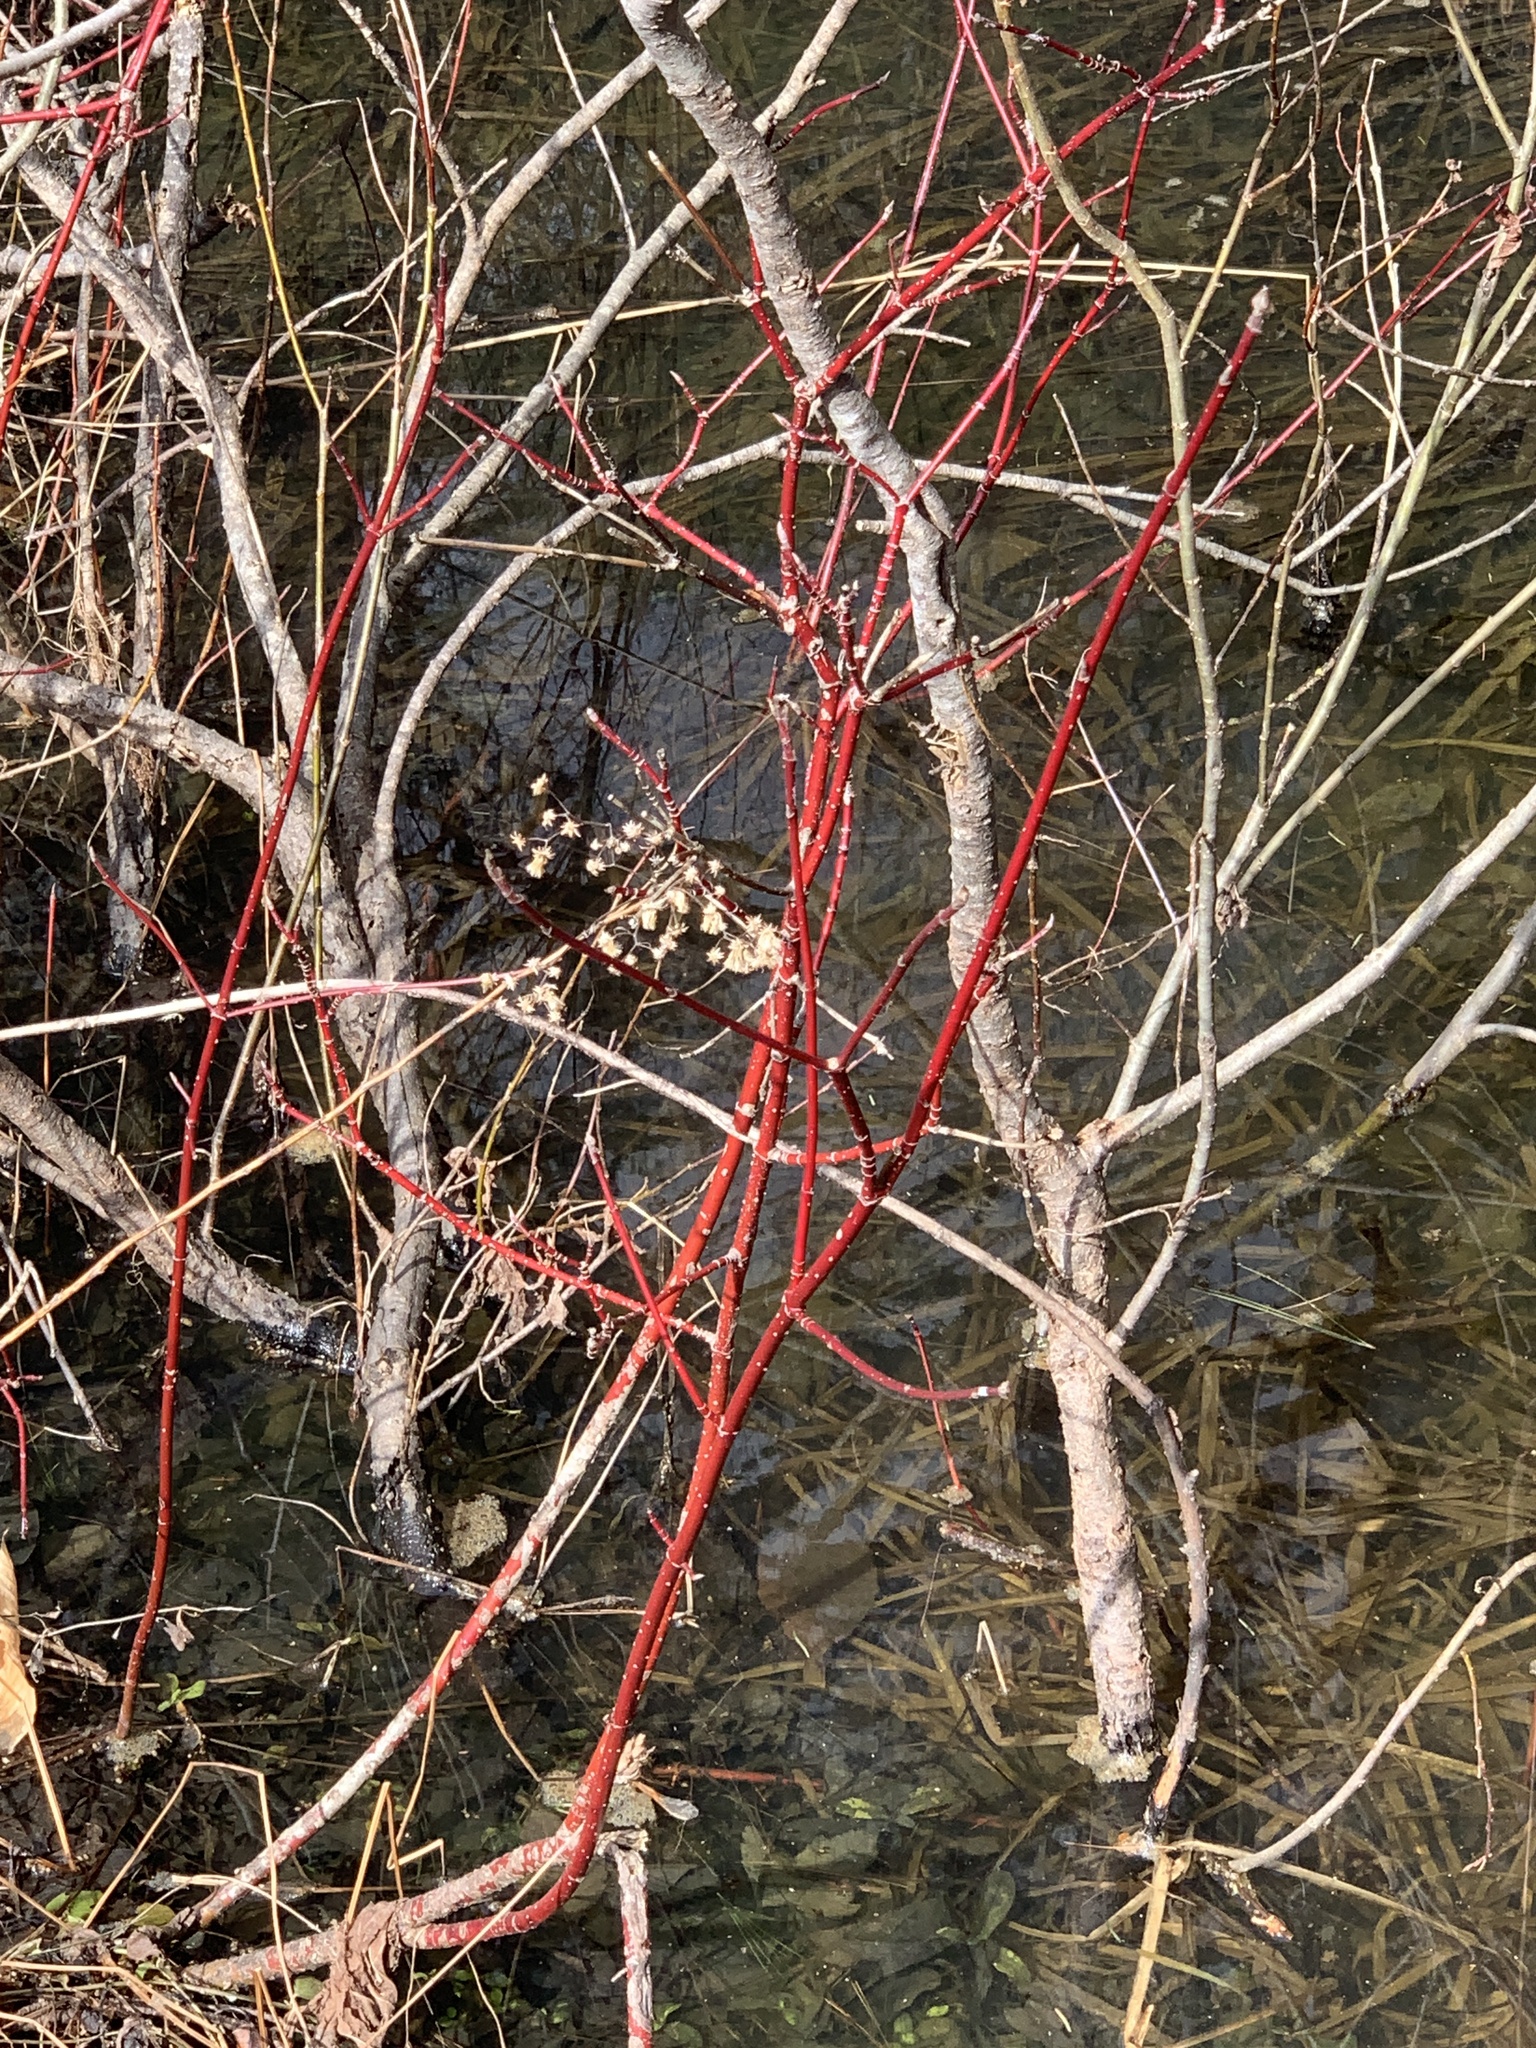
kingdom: Plantae
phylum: Tracheophyta
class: Magnoliopsida
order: Cornales
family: Cornaceae
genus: Cornus
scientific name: Cornus sericea
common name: Red-osier dogwood
